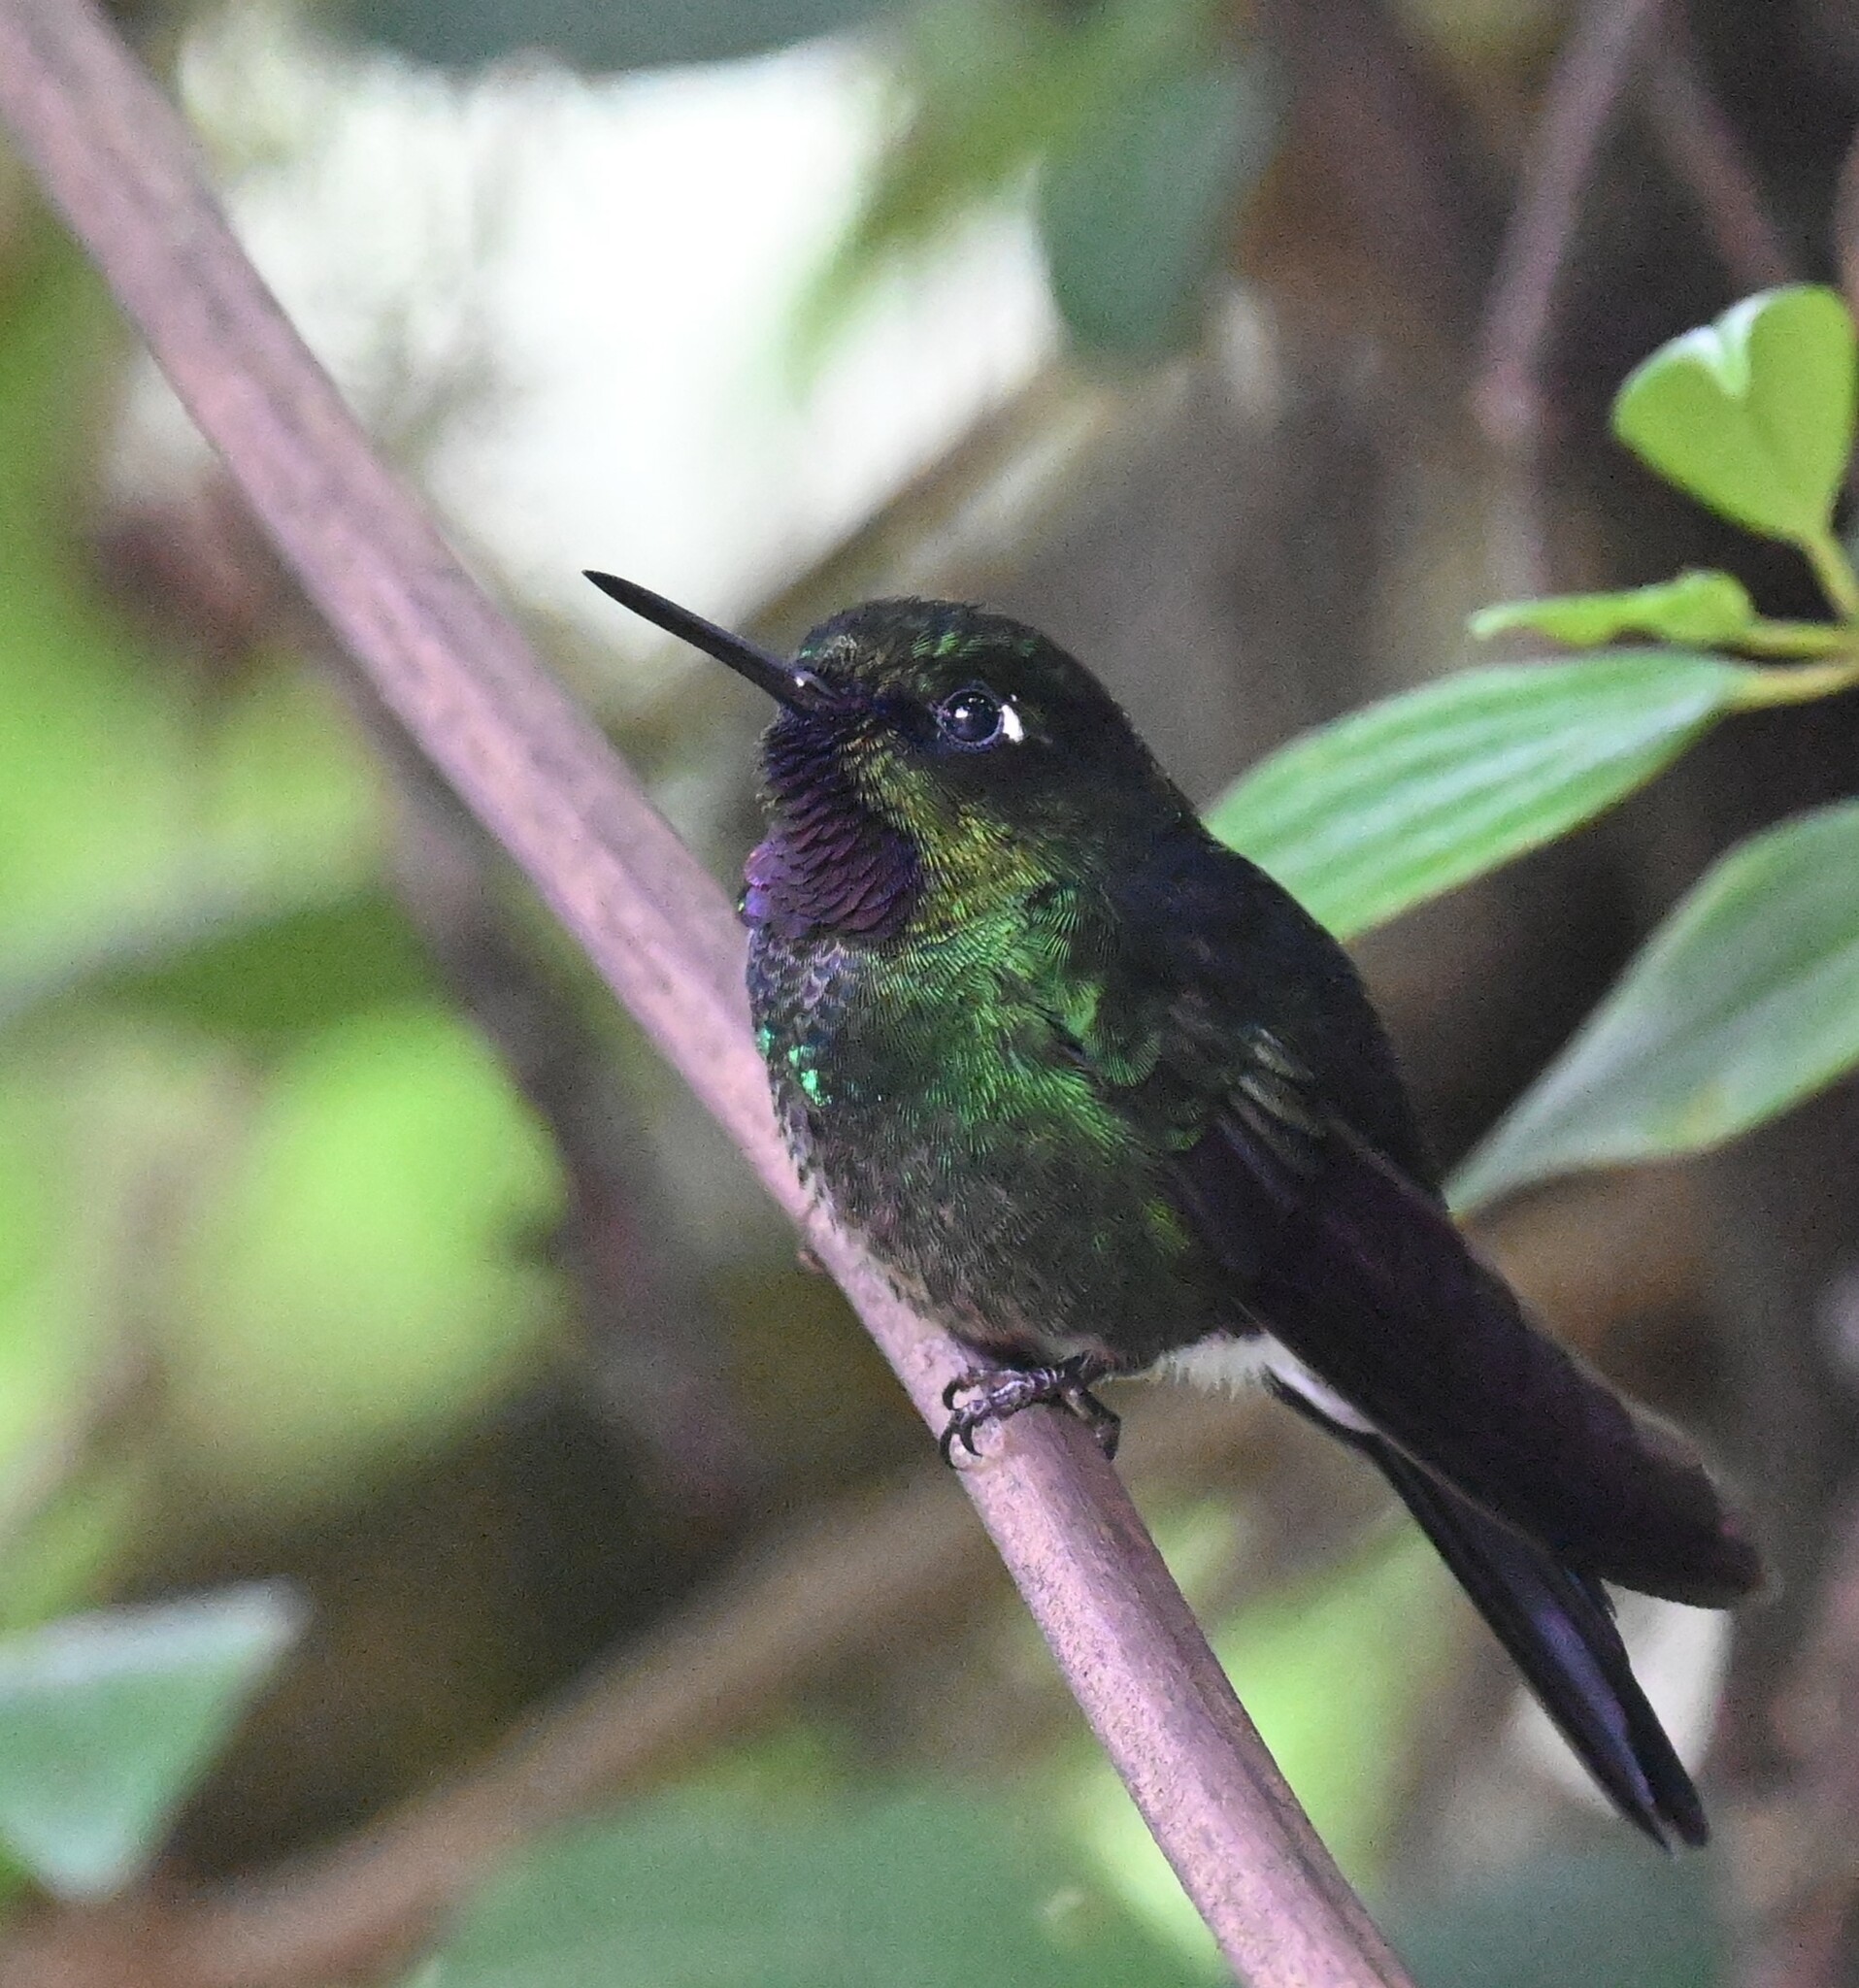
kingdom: Animalia
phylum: Chordata
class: Aves
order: Apodiformes
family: Trochilidae
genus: Heliangelus
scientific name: Heliangelus exortis
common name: Tourmaline sunangel
